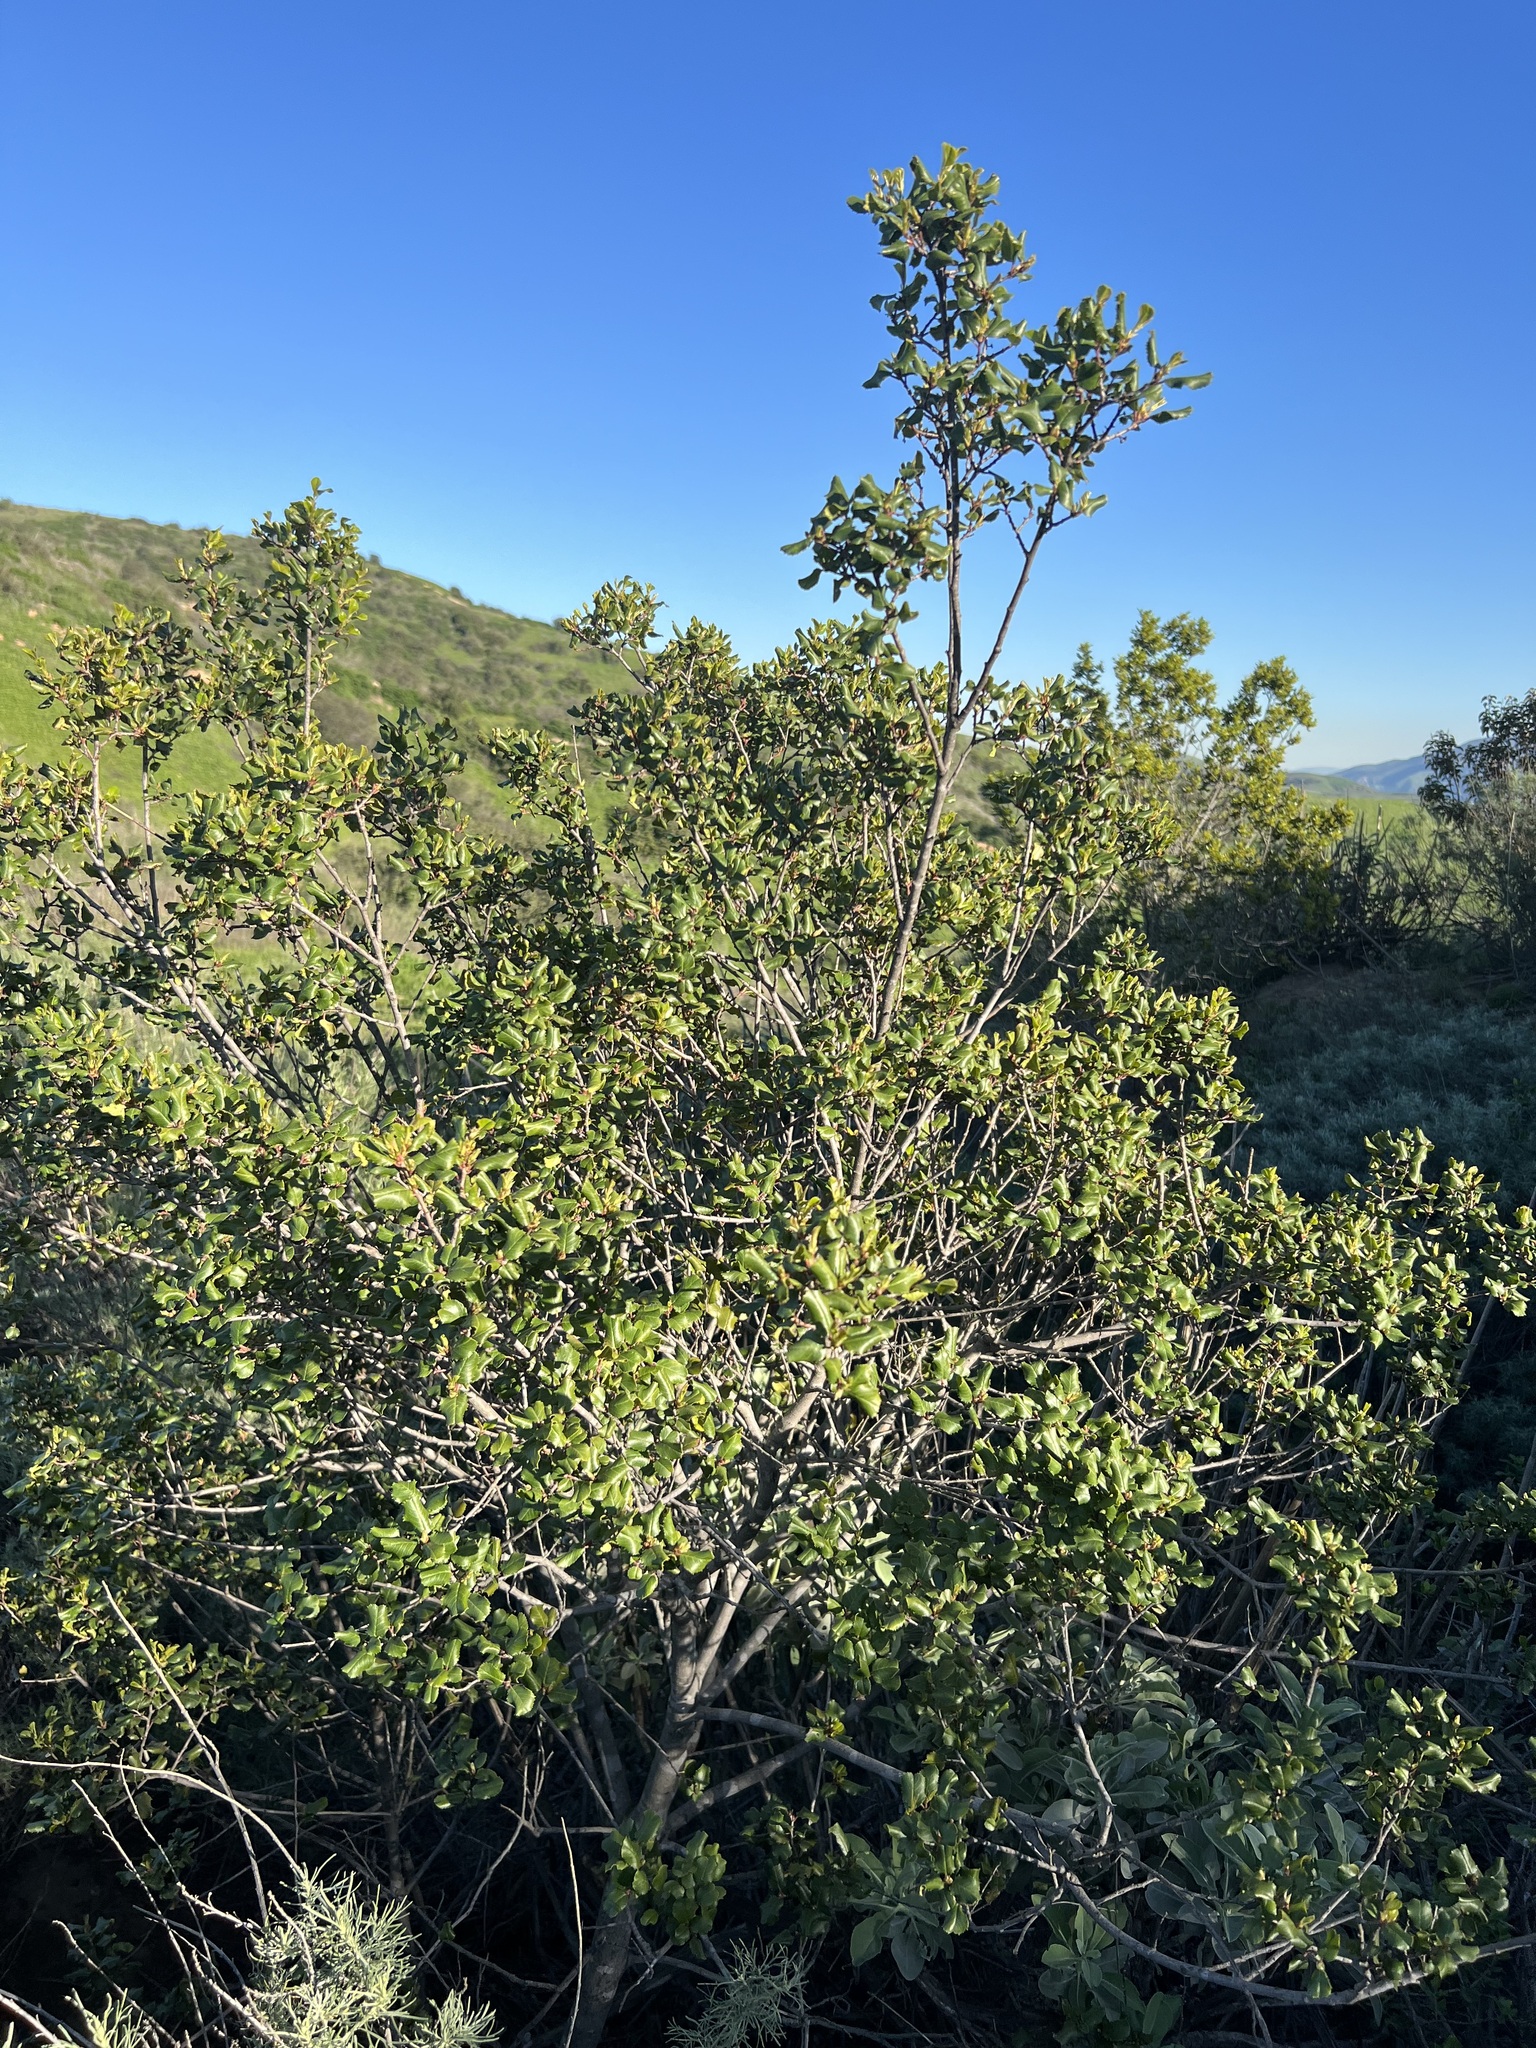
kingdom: Plantae
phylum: Tracheophyta
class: Magnoliopsida
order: Rosales
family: Rhamnaceae
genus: Endotropis
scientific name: Endotropis crocea
